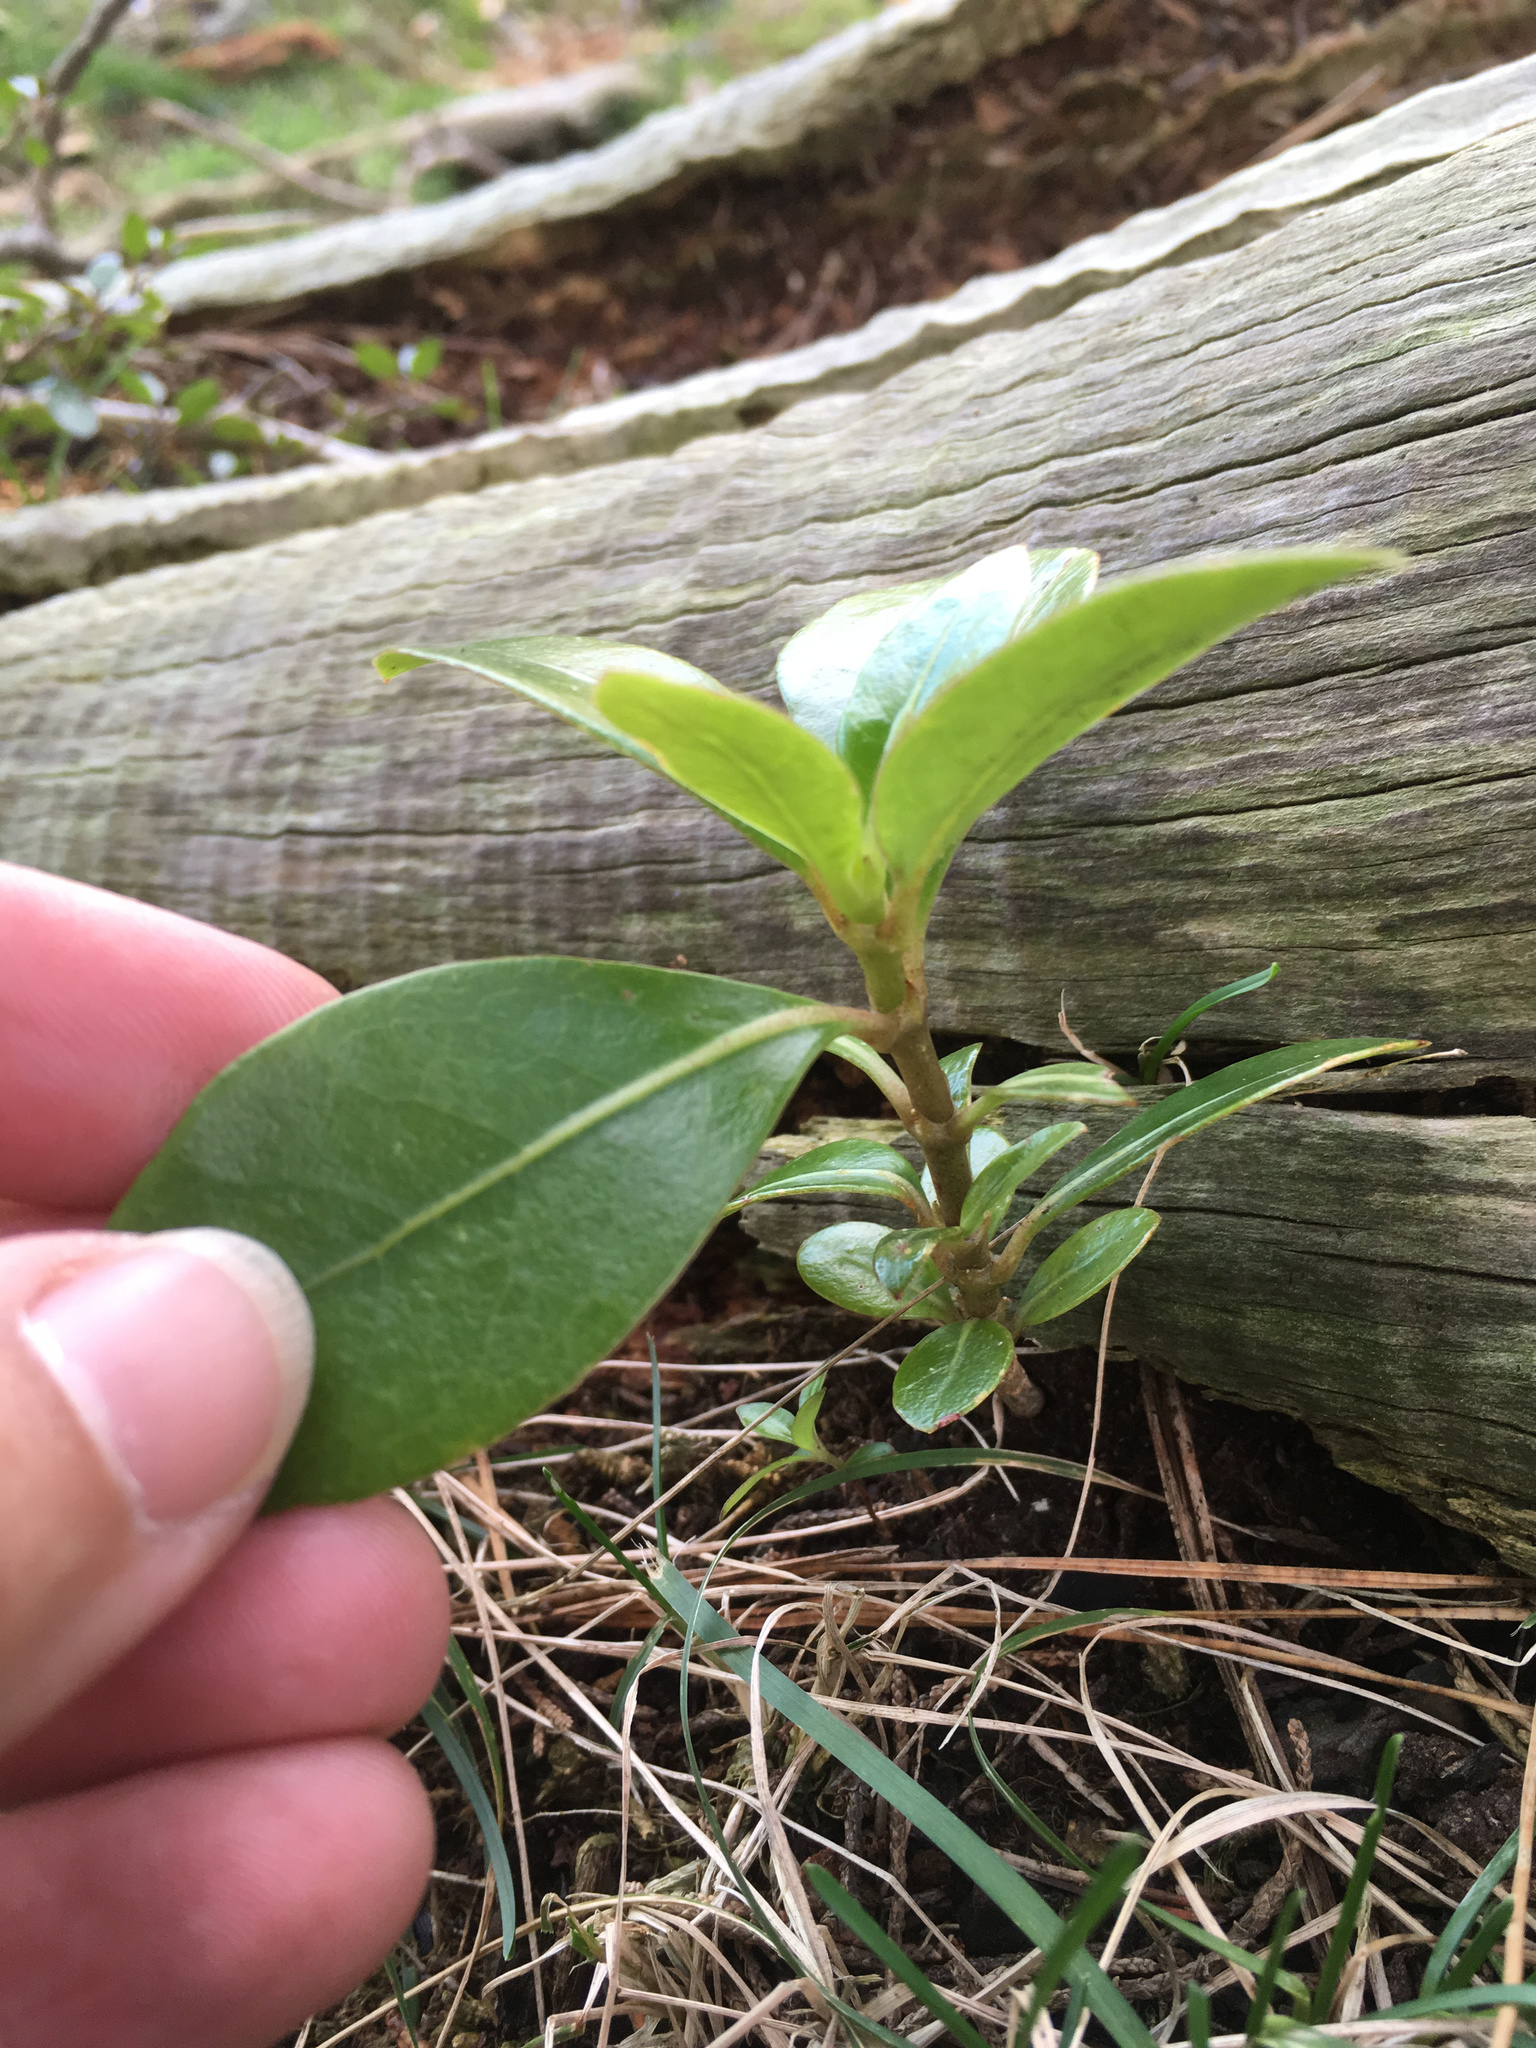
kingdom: Plantae
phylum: Tracheophyta
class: Magnoliopsida
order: Gentianales
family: Rubiaceae
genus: Coprosma
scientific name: Coprosma robusta
